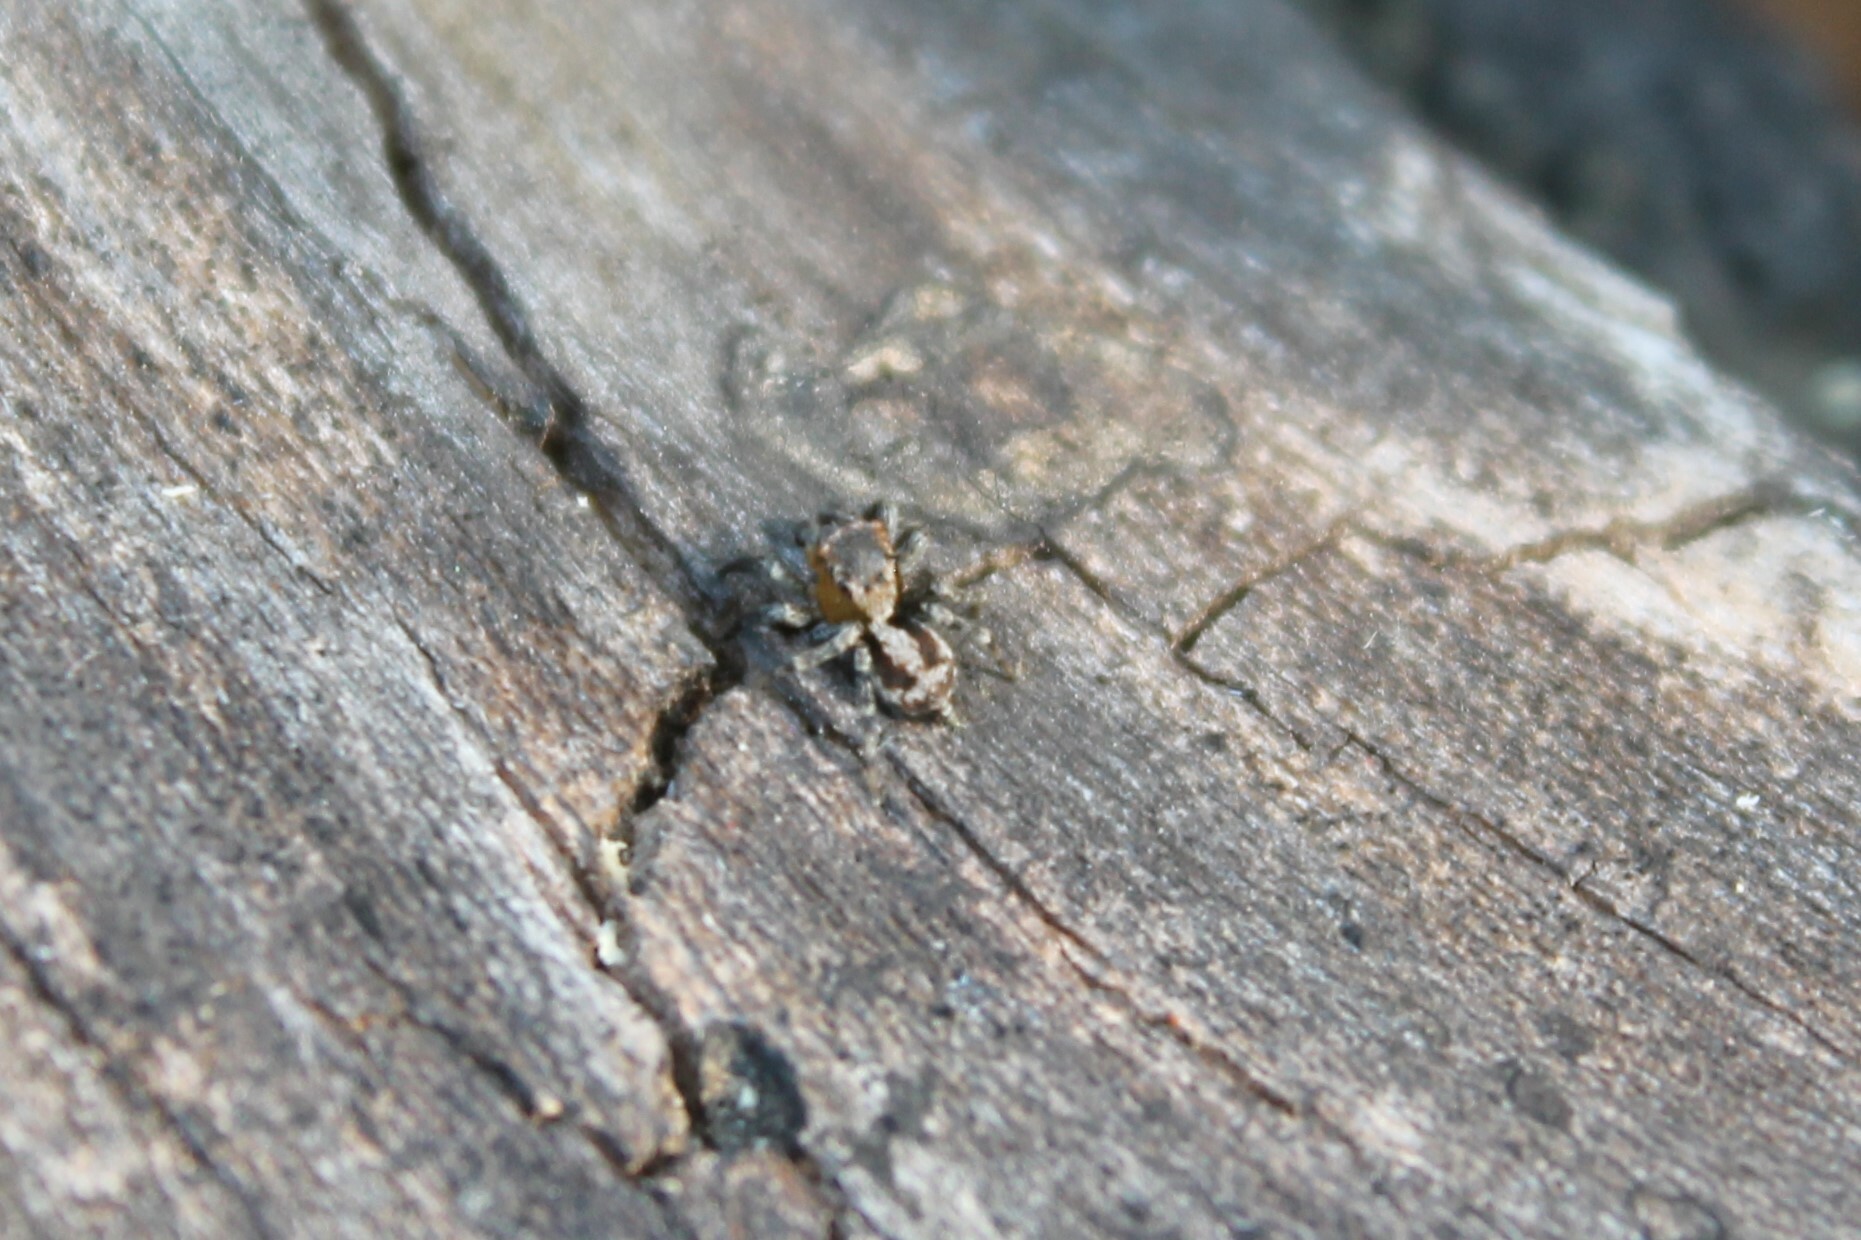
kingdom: Animalia
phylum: Arthropoda
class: Arachnida
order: Araneae
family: Salticidae
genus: Naphrys
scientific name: Naphrys pulex
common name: Flea jumping spider
